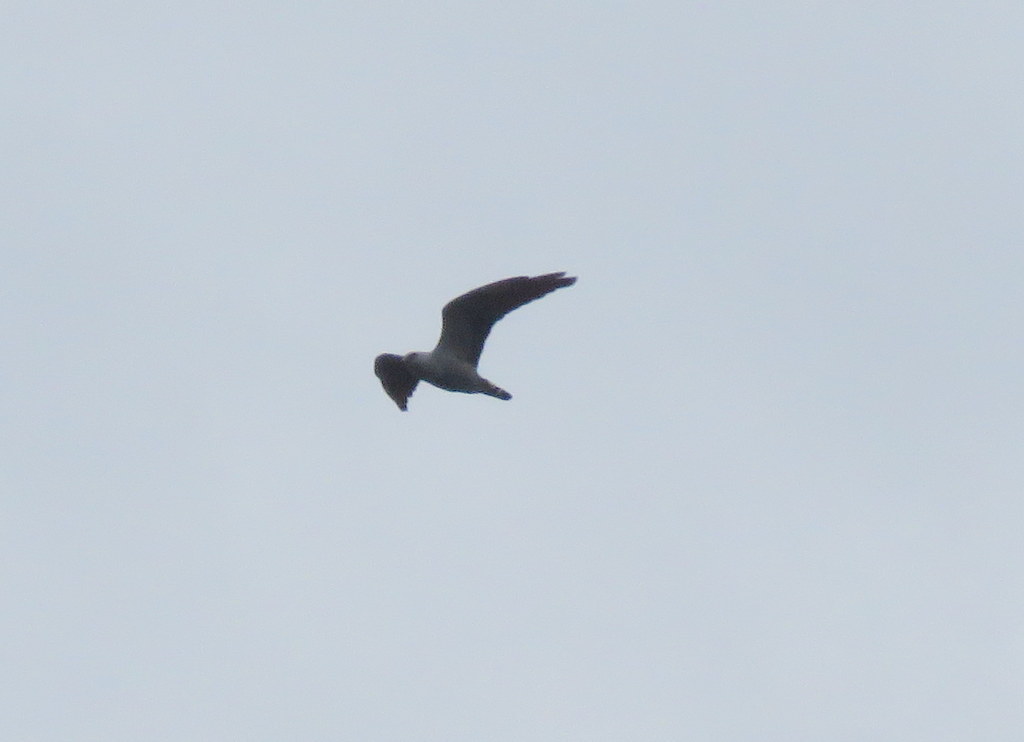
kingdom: Animalia
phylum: Chordata
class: Aves
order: Accipitriformes
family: Accipitridae
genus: Ictinia
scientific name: Ictinia plumbea
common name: Plumbeous kite
